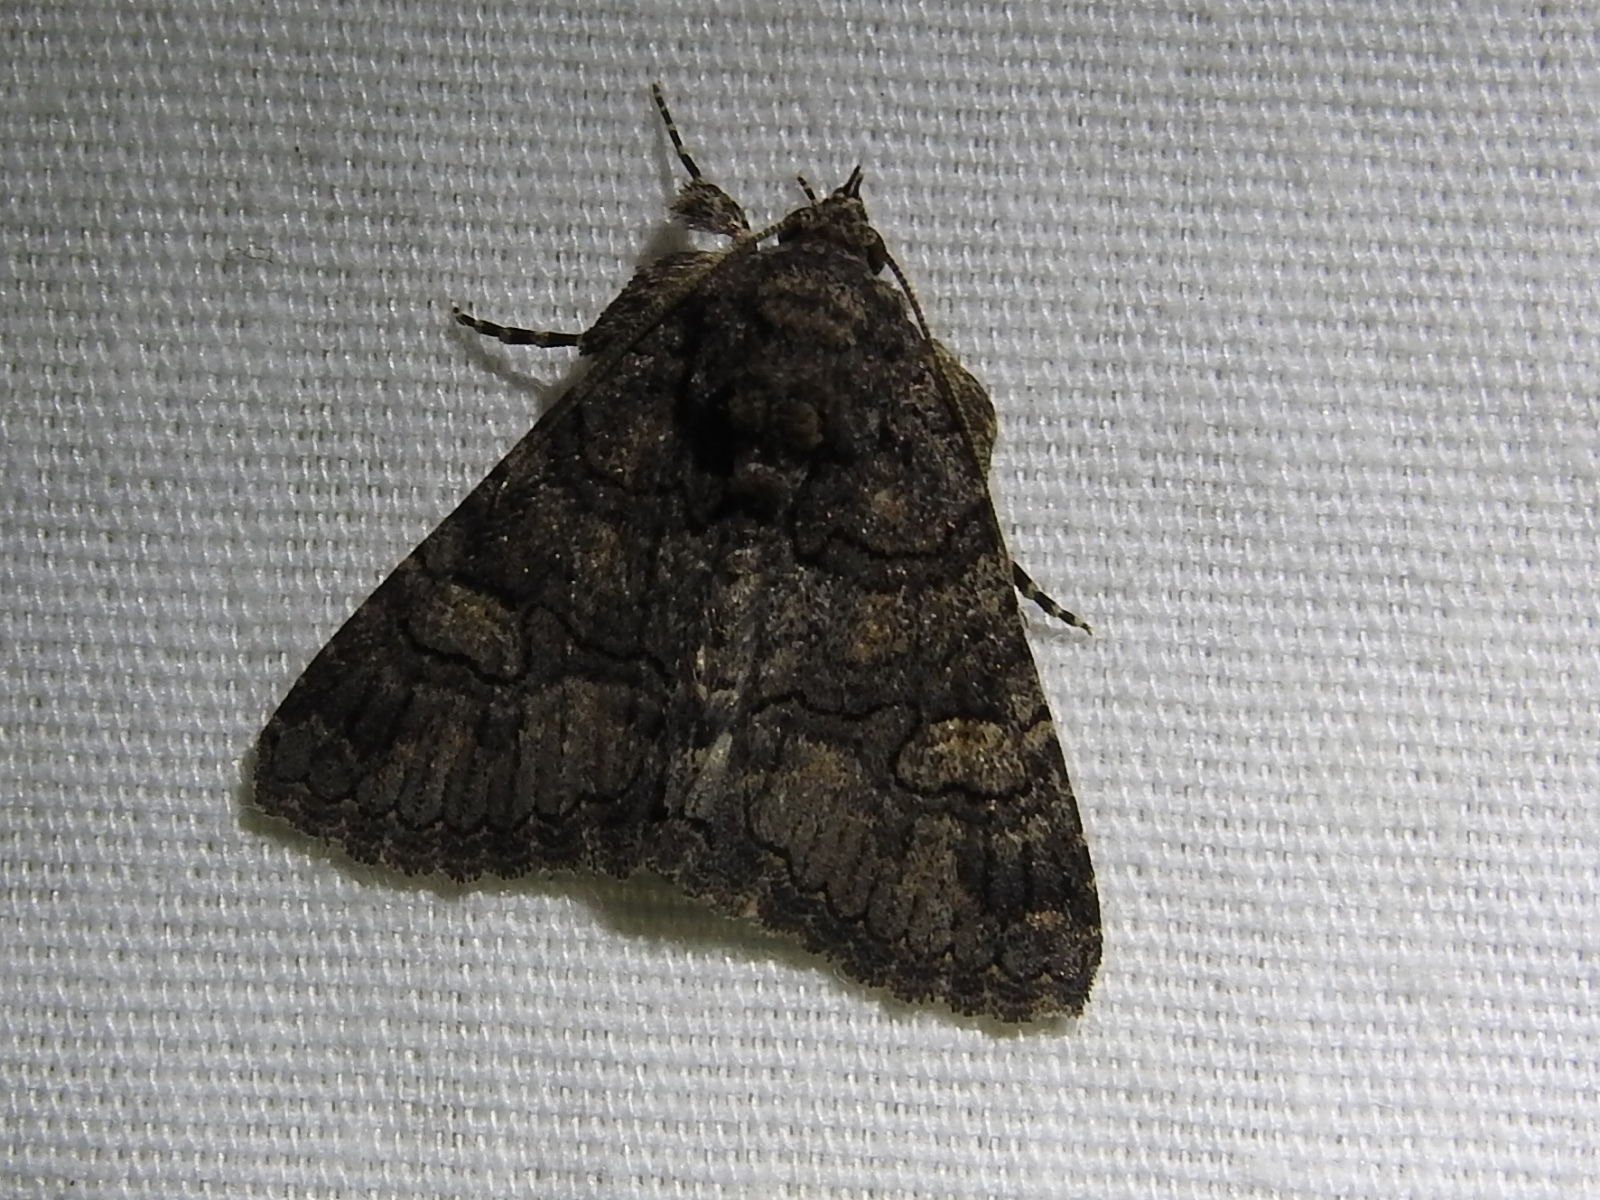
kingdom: Animalia
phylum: Arthropoda
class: Insecta
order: Lepidoptera
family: Erebidae
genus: Elousa
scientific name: Elousa mima
